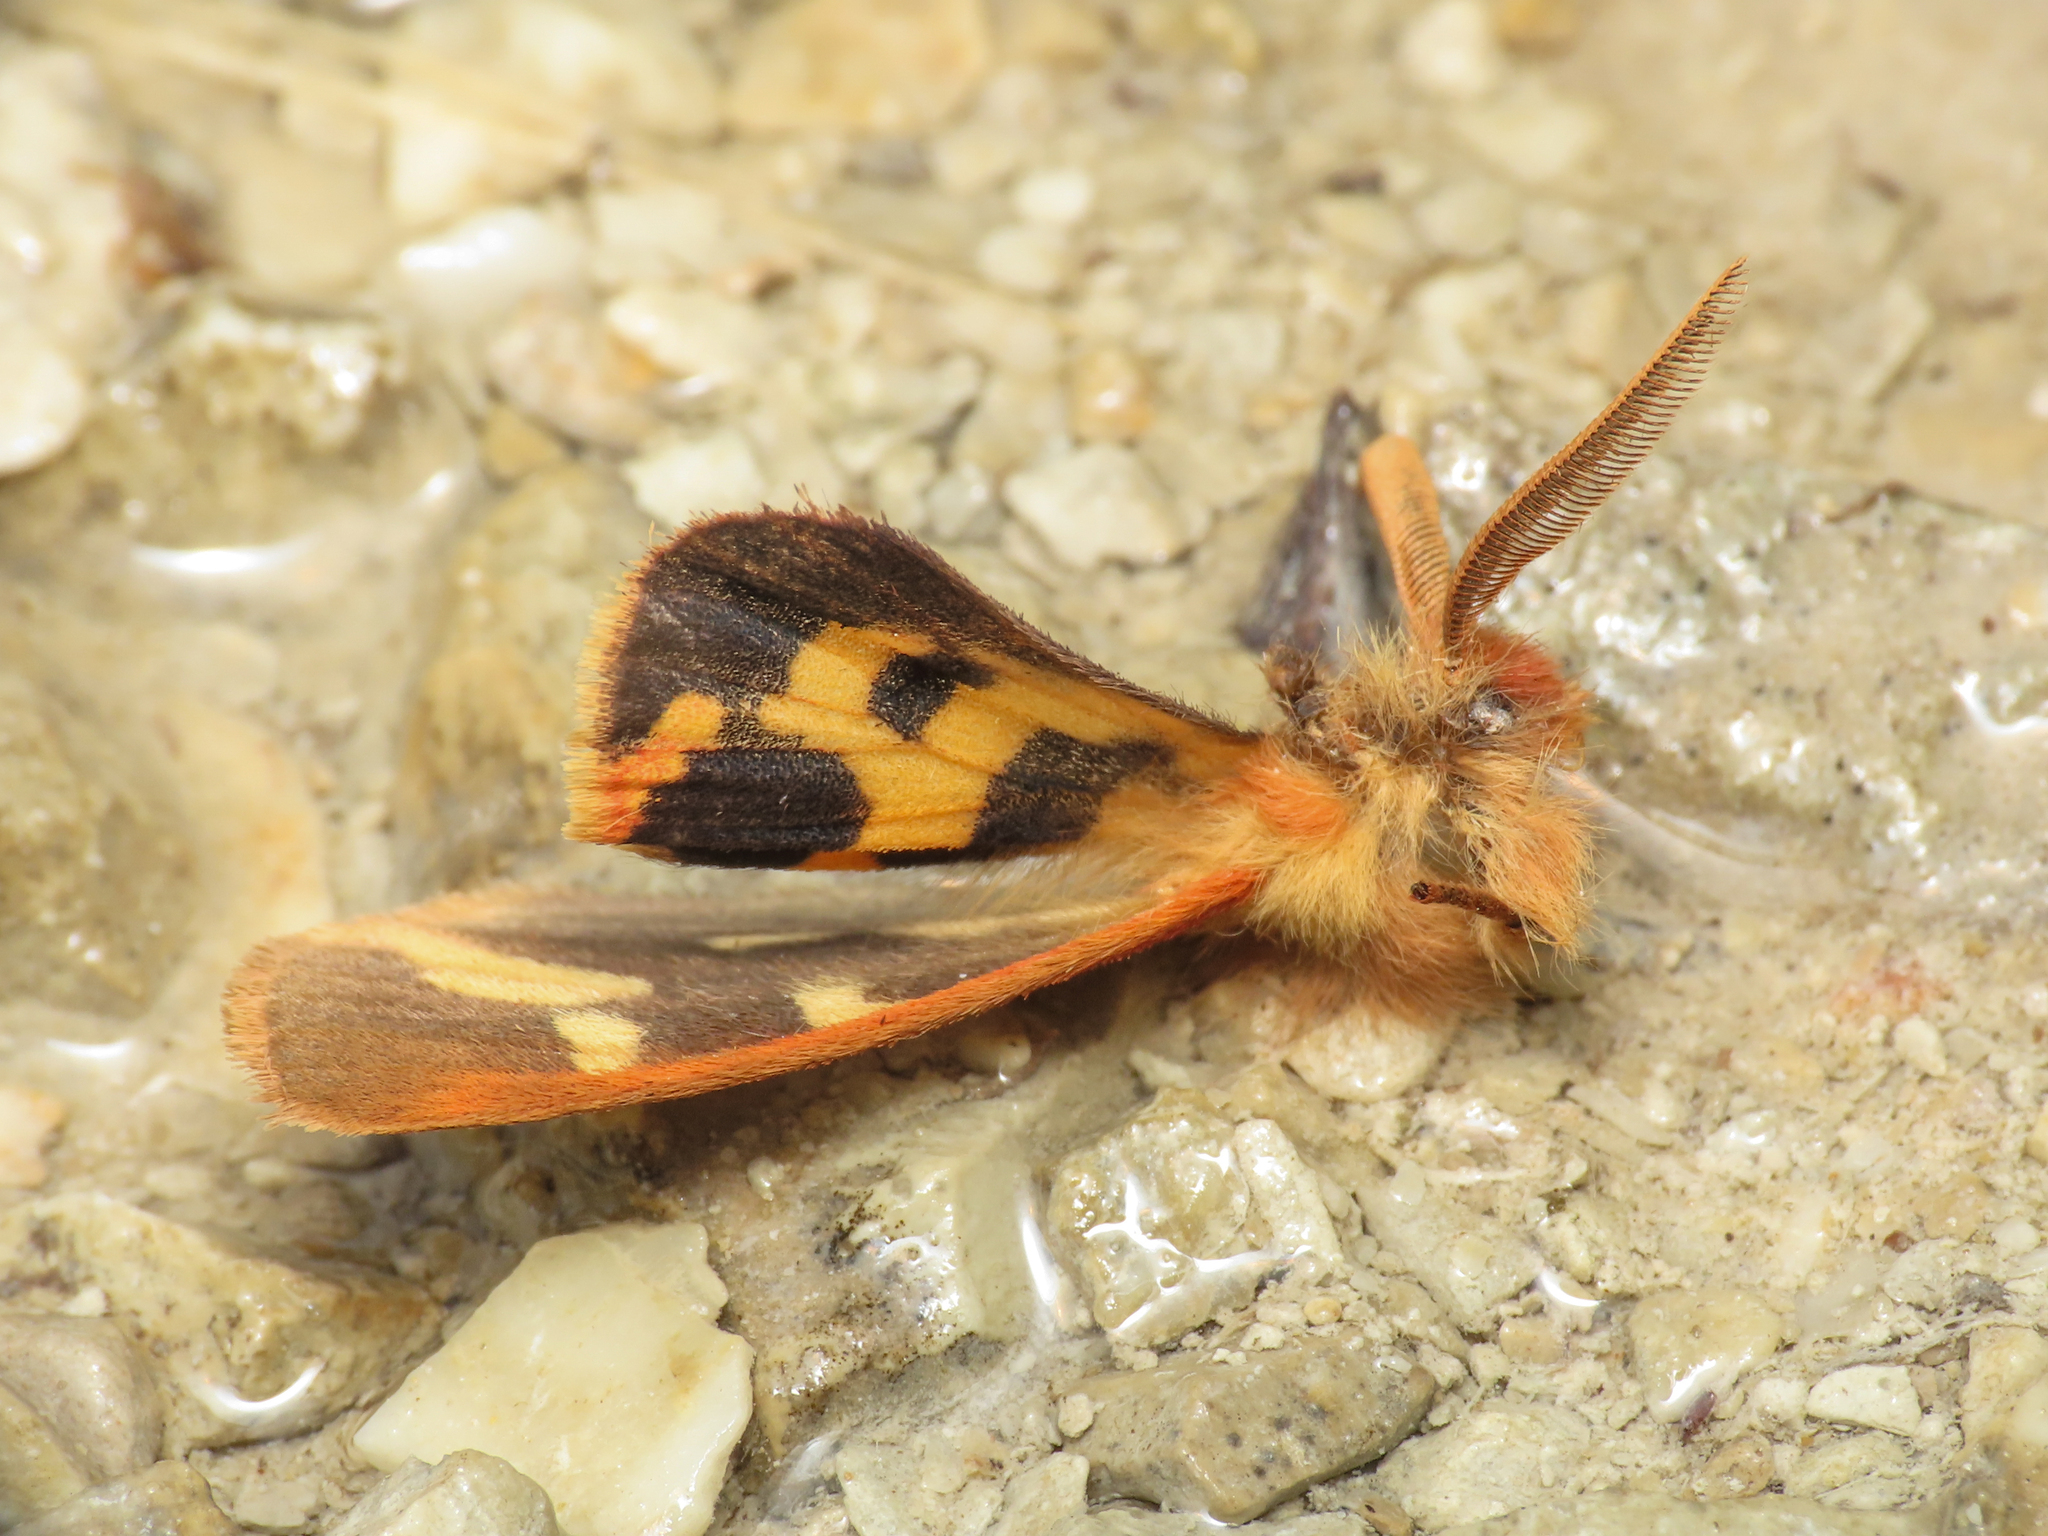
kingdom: Animalia
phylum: Arthropoda
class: Insecta
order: Lepidoptera
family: Erebidae
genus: Arctia
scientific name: Arctia testudinaria
